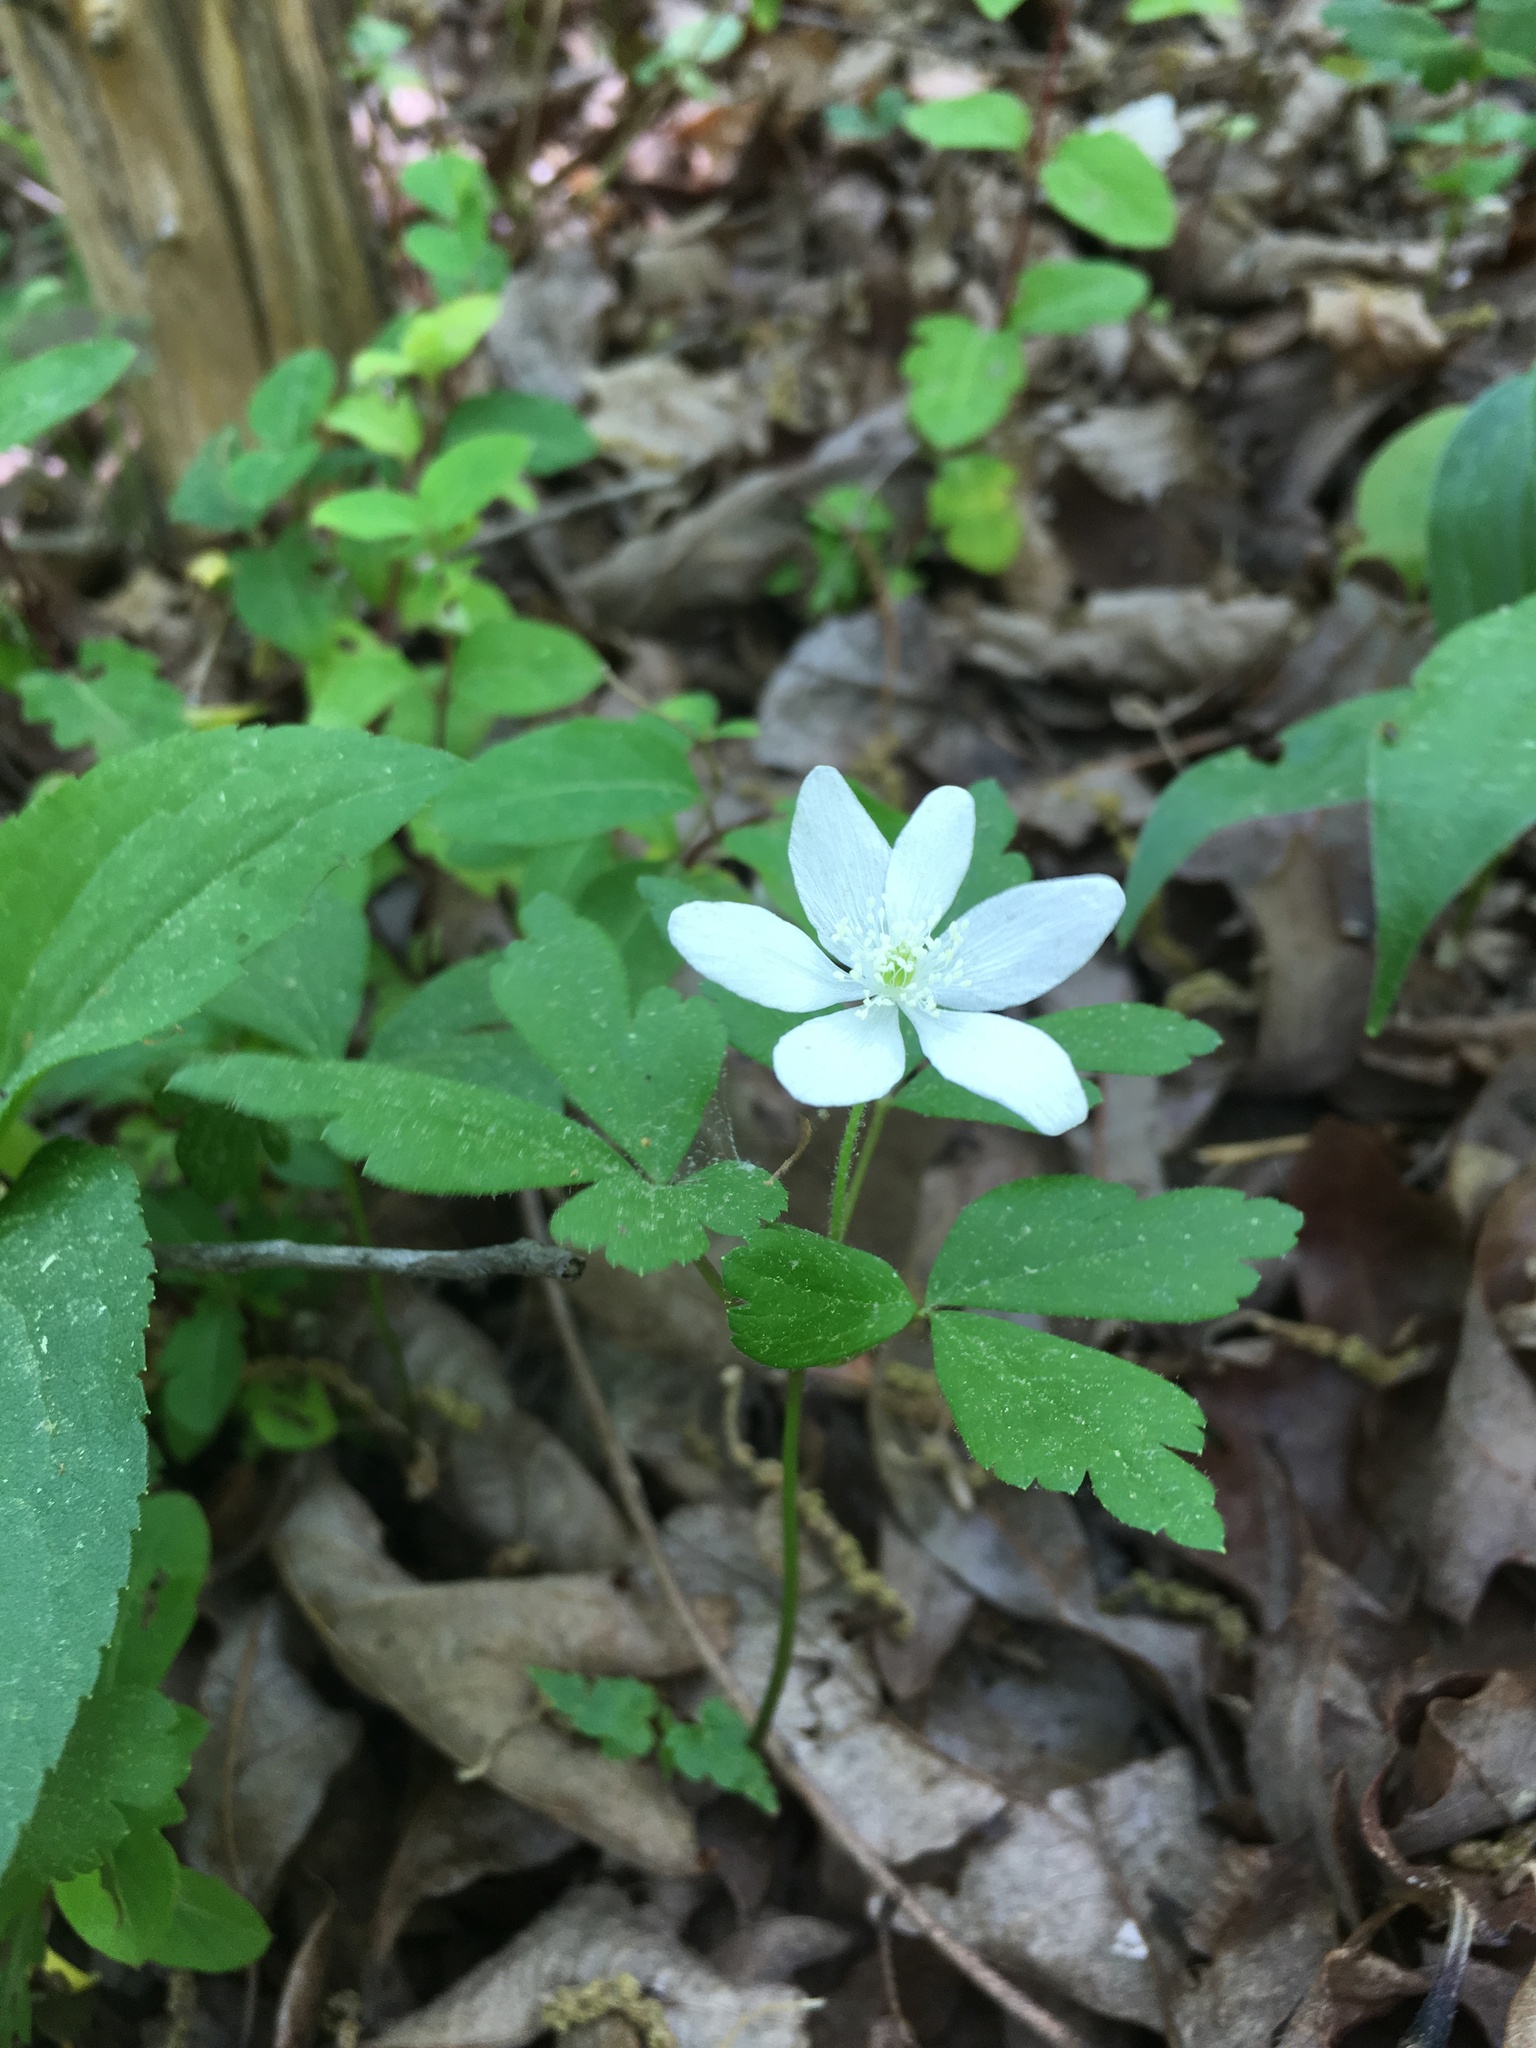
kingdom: Plantae
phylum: Tracheophyta
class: Magnoliopsida
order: Ranunculales
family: Ranunculaceae
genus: Anemone
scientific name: Anemone quinquefolia
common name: Wood anemone
